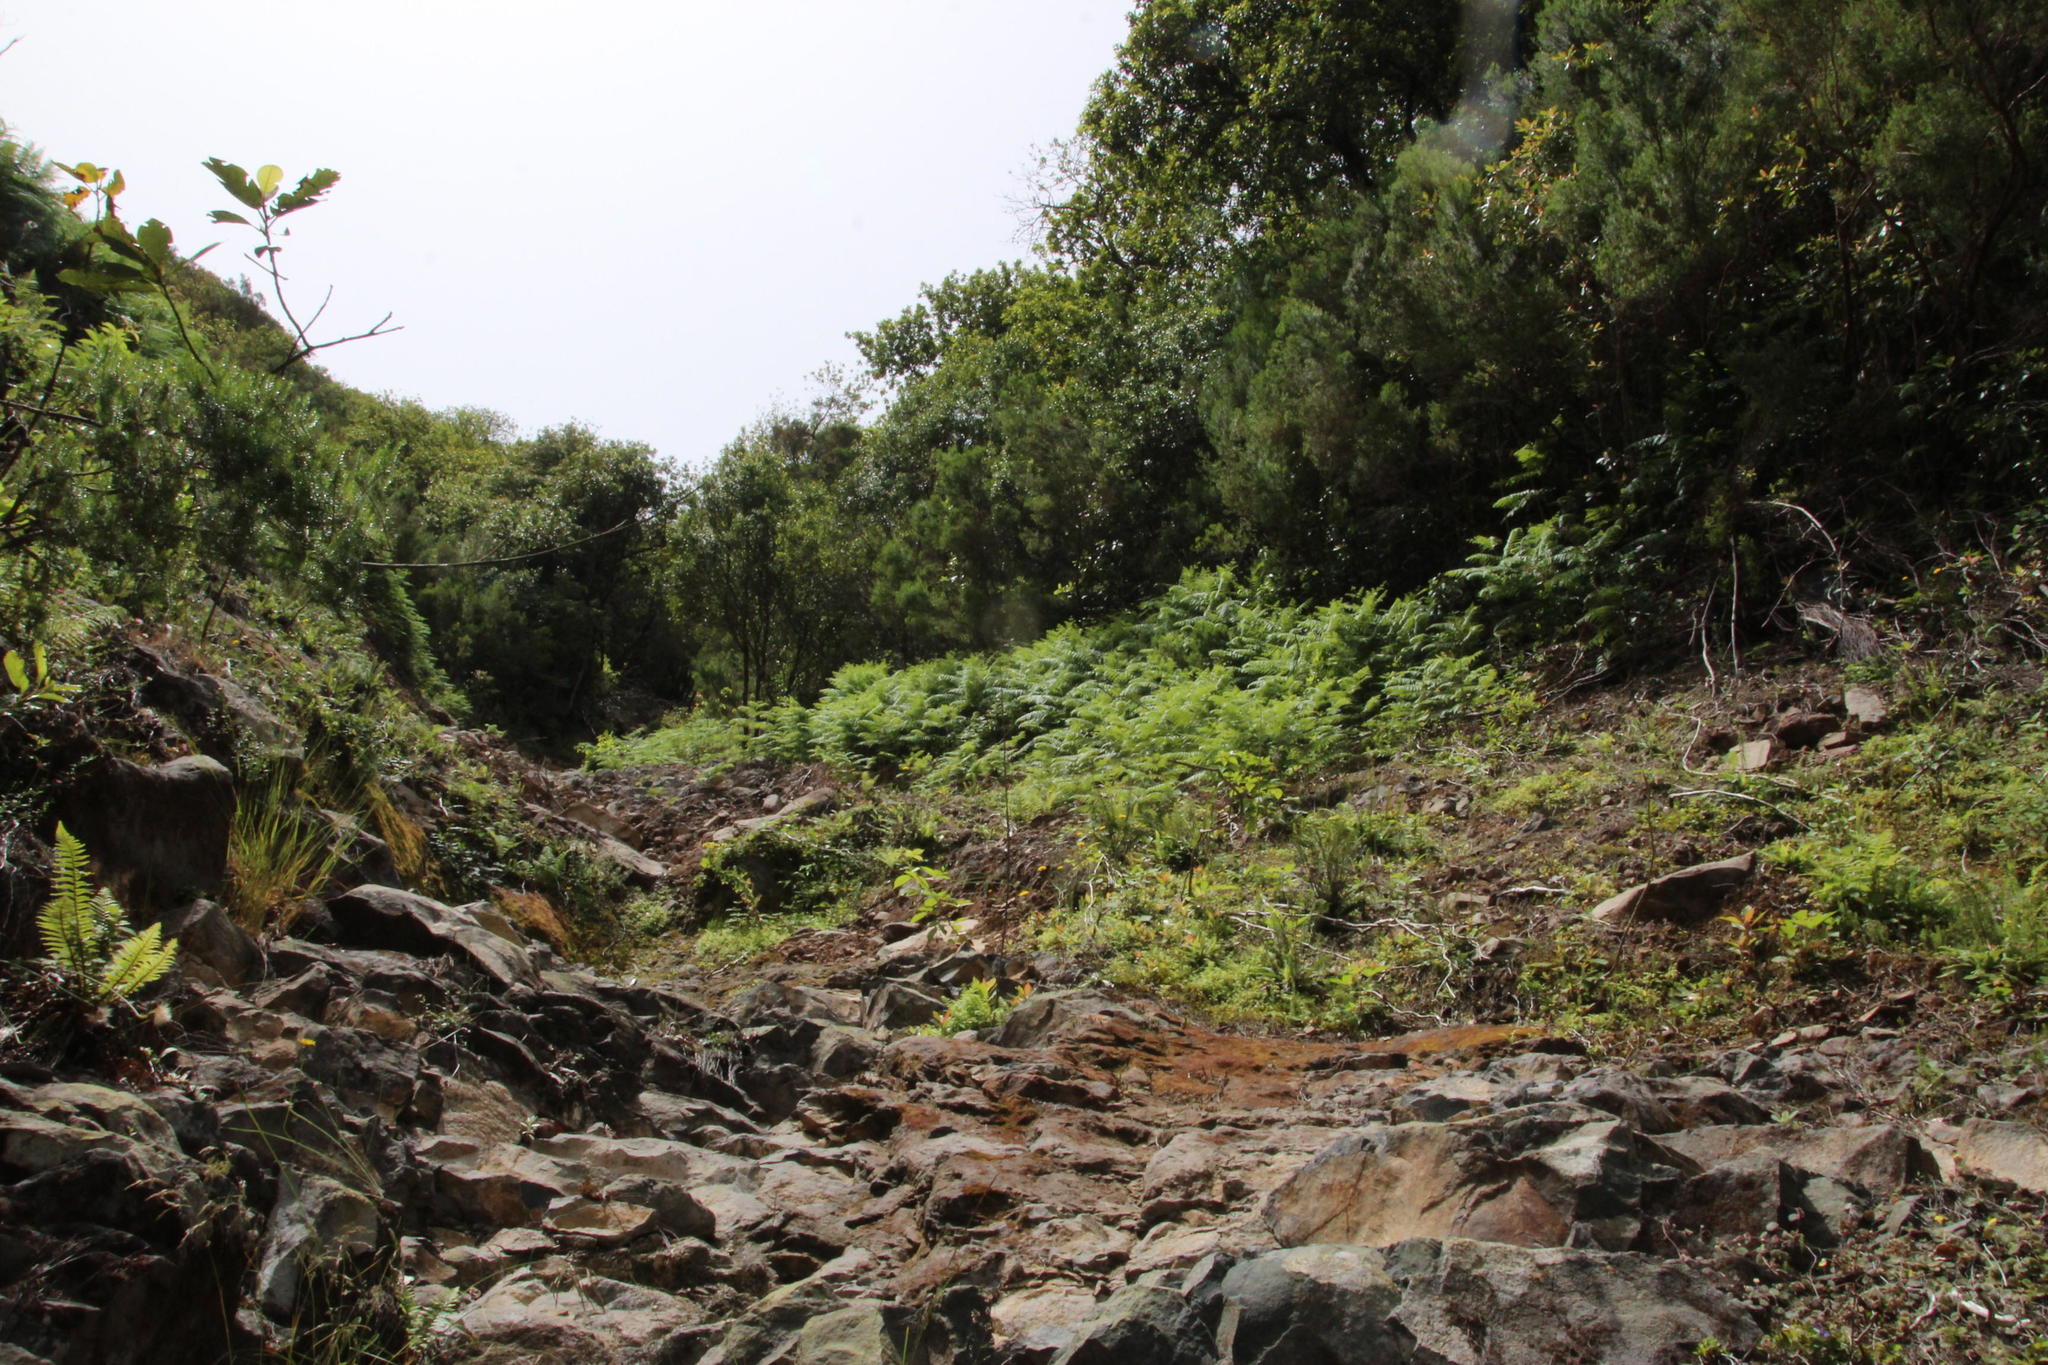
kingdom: Plantae
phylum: Tracheophyta
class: Polypodiopsida
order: Polypodiales
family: Dennstaedtiaceae
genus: Pteridium
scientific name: Pteridium aquilinum
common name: Bracken
